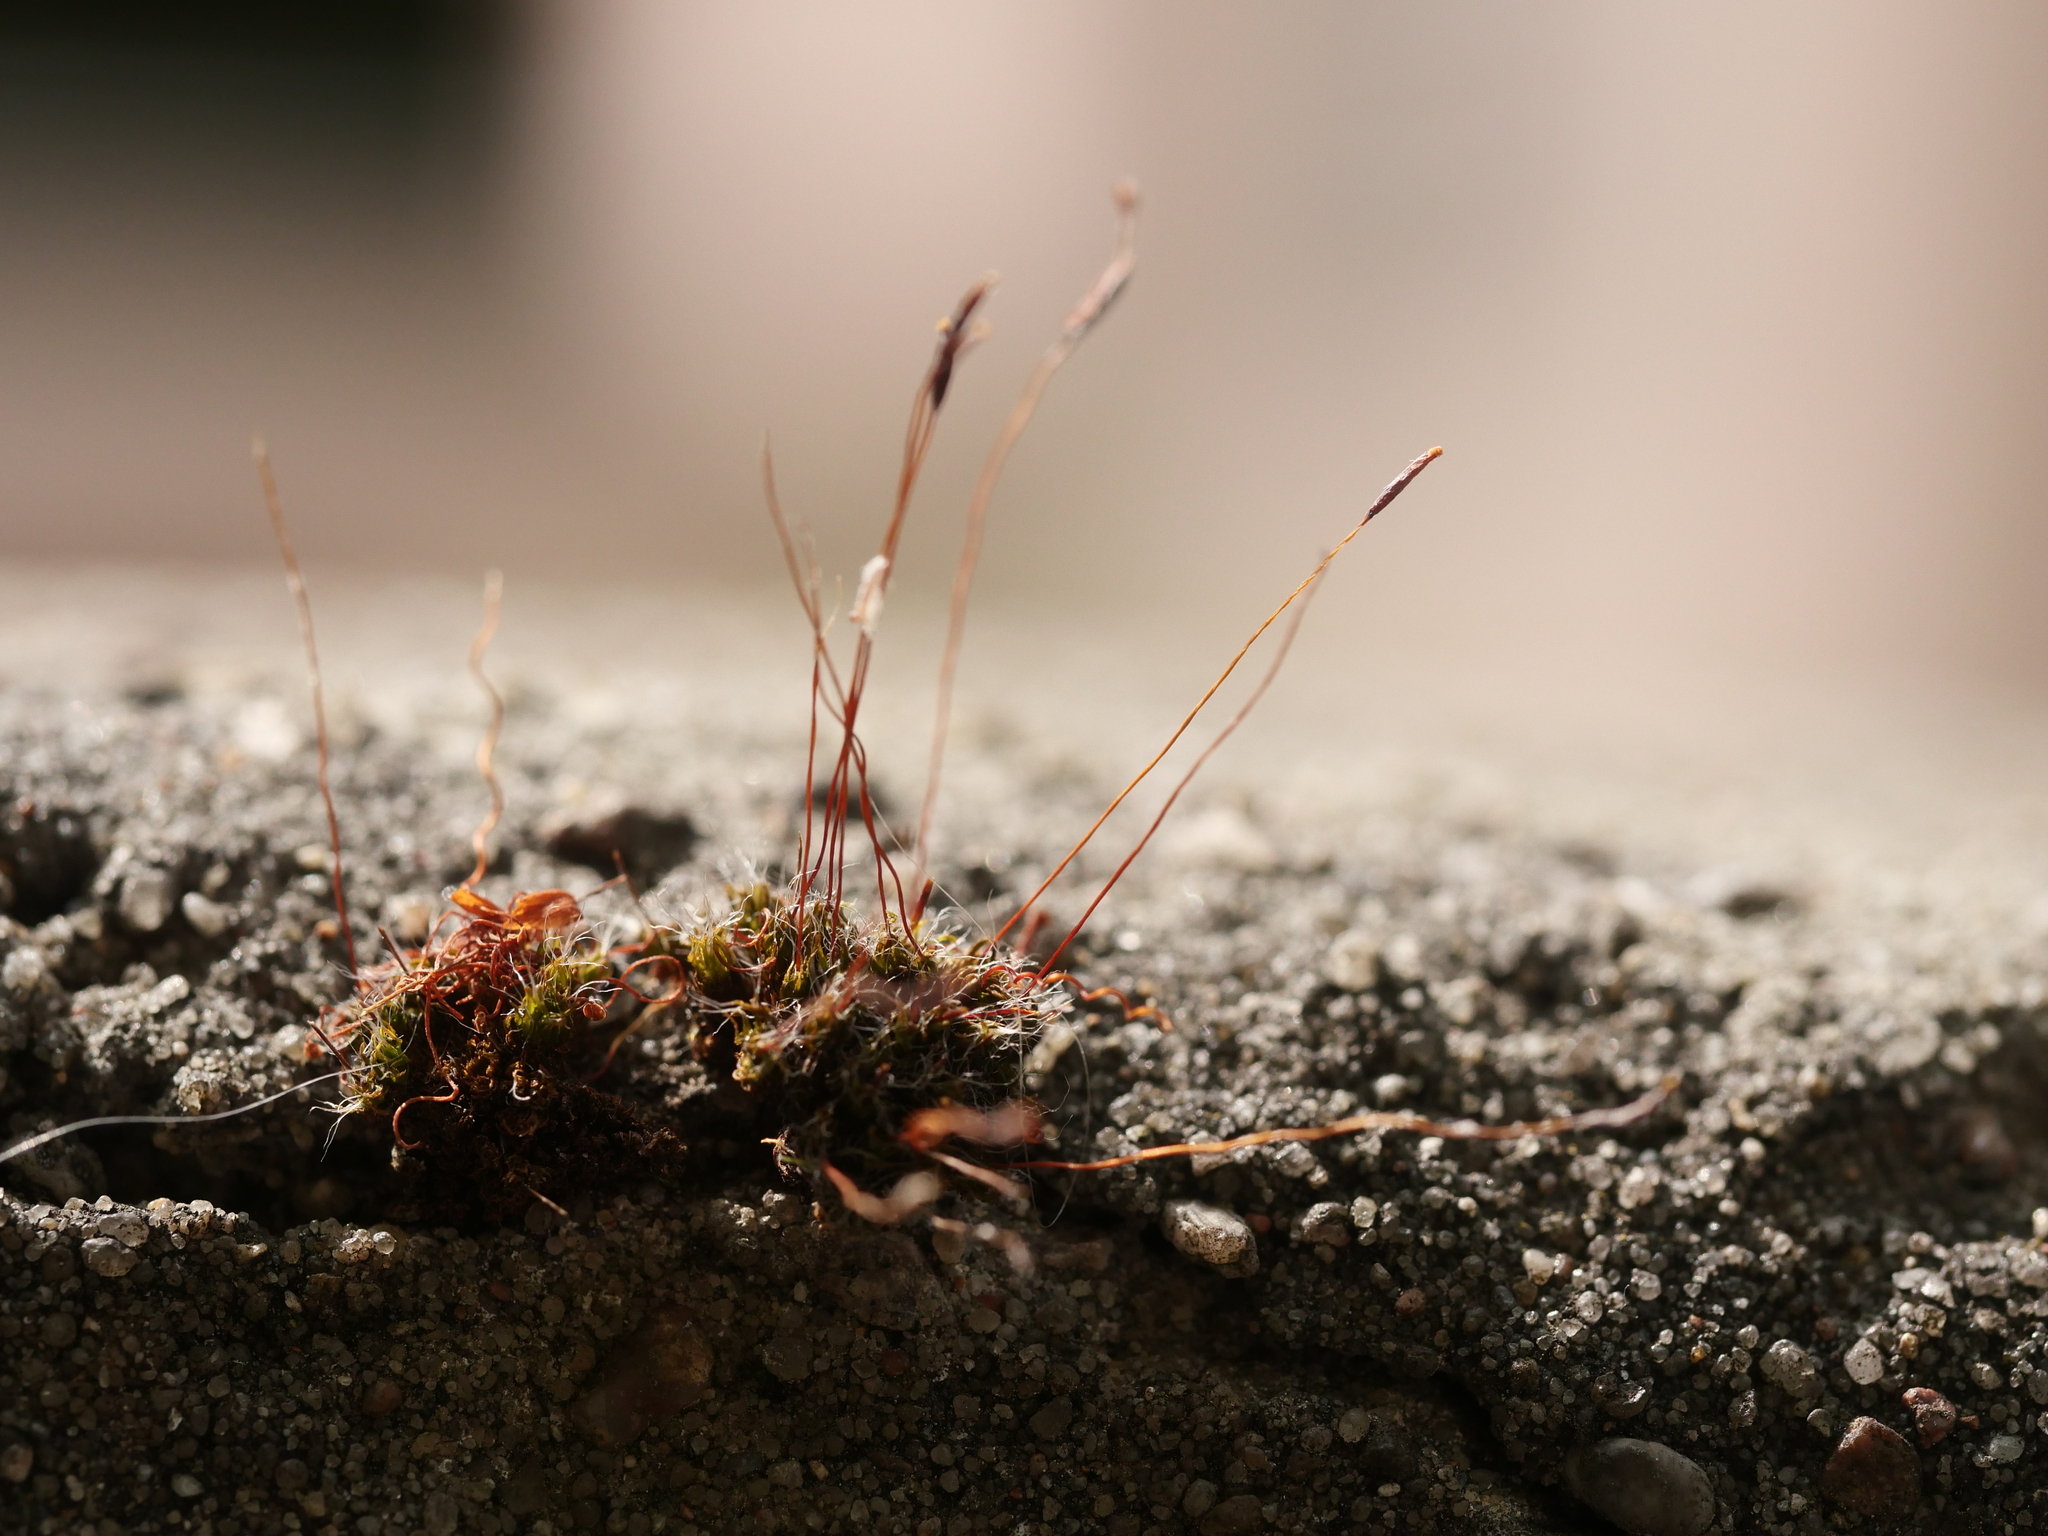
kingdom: Plantae
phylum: Bryophyta
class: Bryopsida
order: Pottiales
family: Pottiaceae
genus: Tortula
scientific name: Tortula muralis
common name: Wall screw-moss
